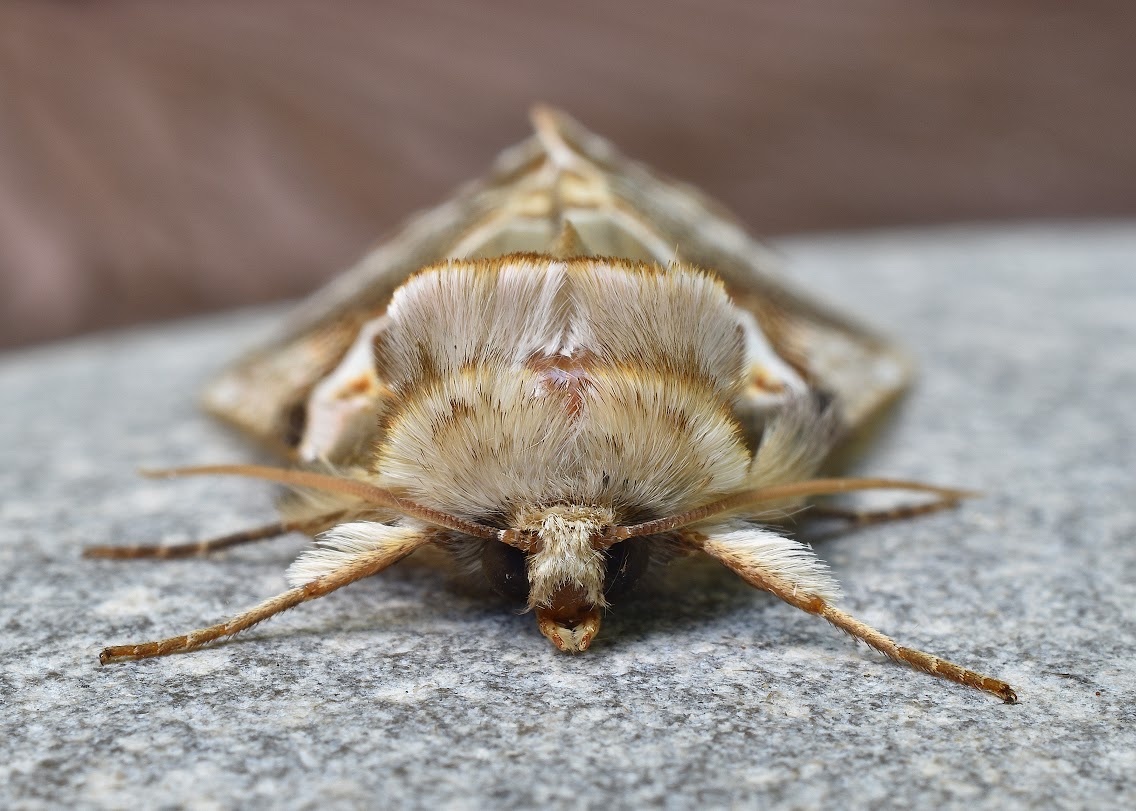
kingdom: Animalia
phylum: Arthropoda
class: Insecta
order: Lepidoptera
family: Drepanidae
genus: Habrosyne
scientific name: Habrosyne scripta
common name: Lettered habrosyne moth
